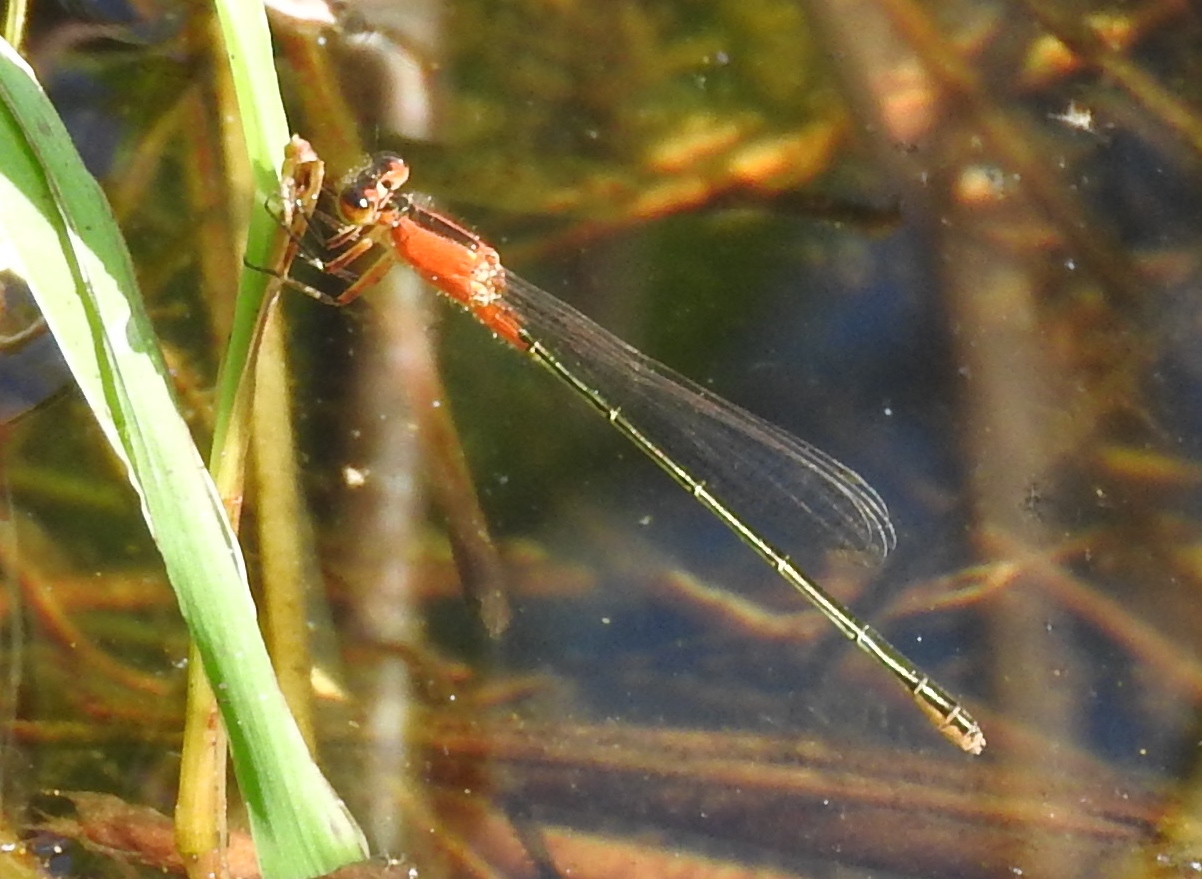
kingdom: Animalia
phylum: Arthropoda
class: Insecta
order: Odonata
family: Coenagrionidae
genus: Ischnura
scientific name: Ischnura ramburii
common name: Rambur's forktail
